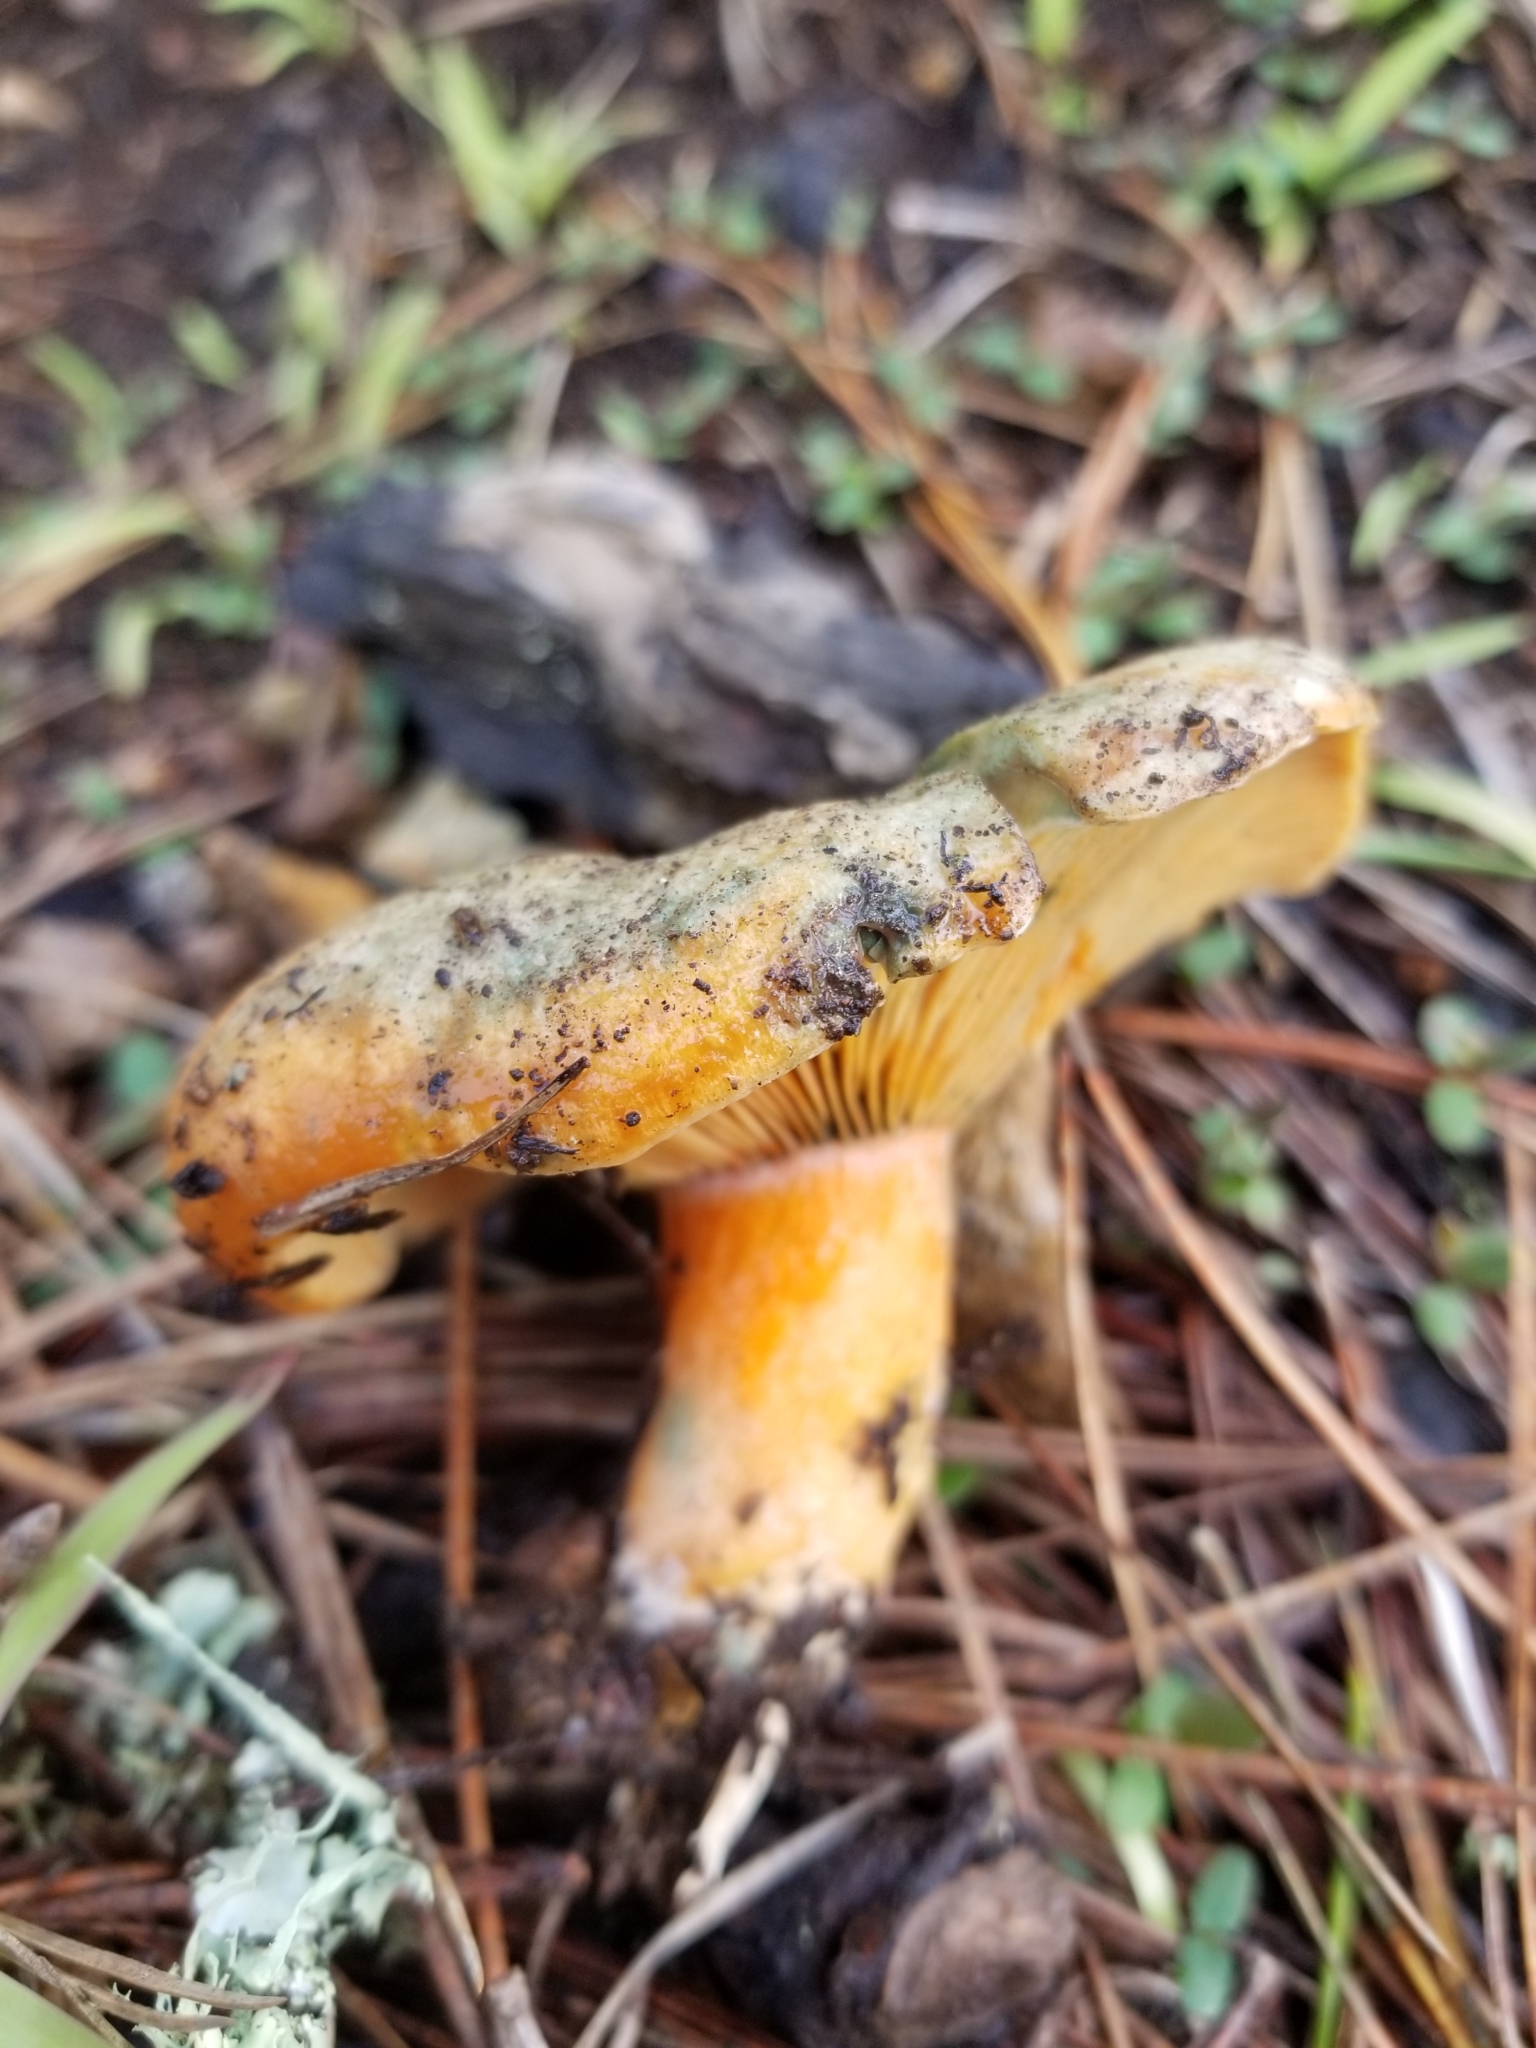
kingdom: Fungi
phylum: Basidiomycota
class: Agaricomycetes
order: Russulales
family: Russulaceae
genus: Lactarius
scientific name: Lactarius deliciosus
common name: Saffron milk-cap
